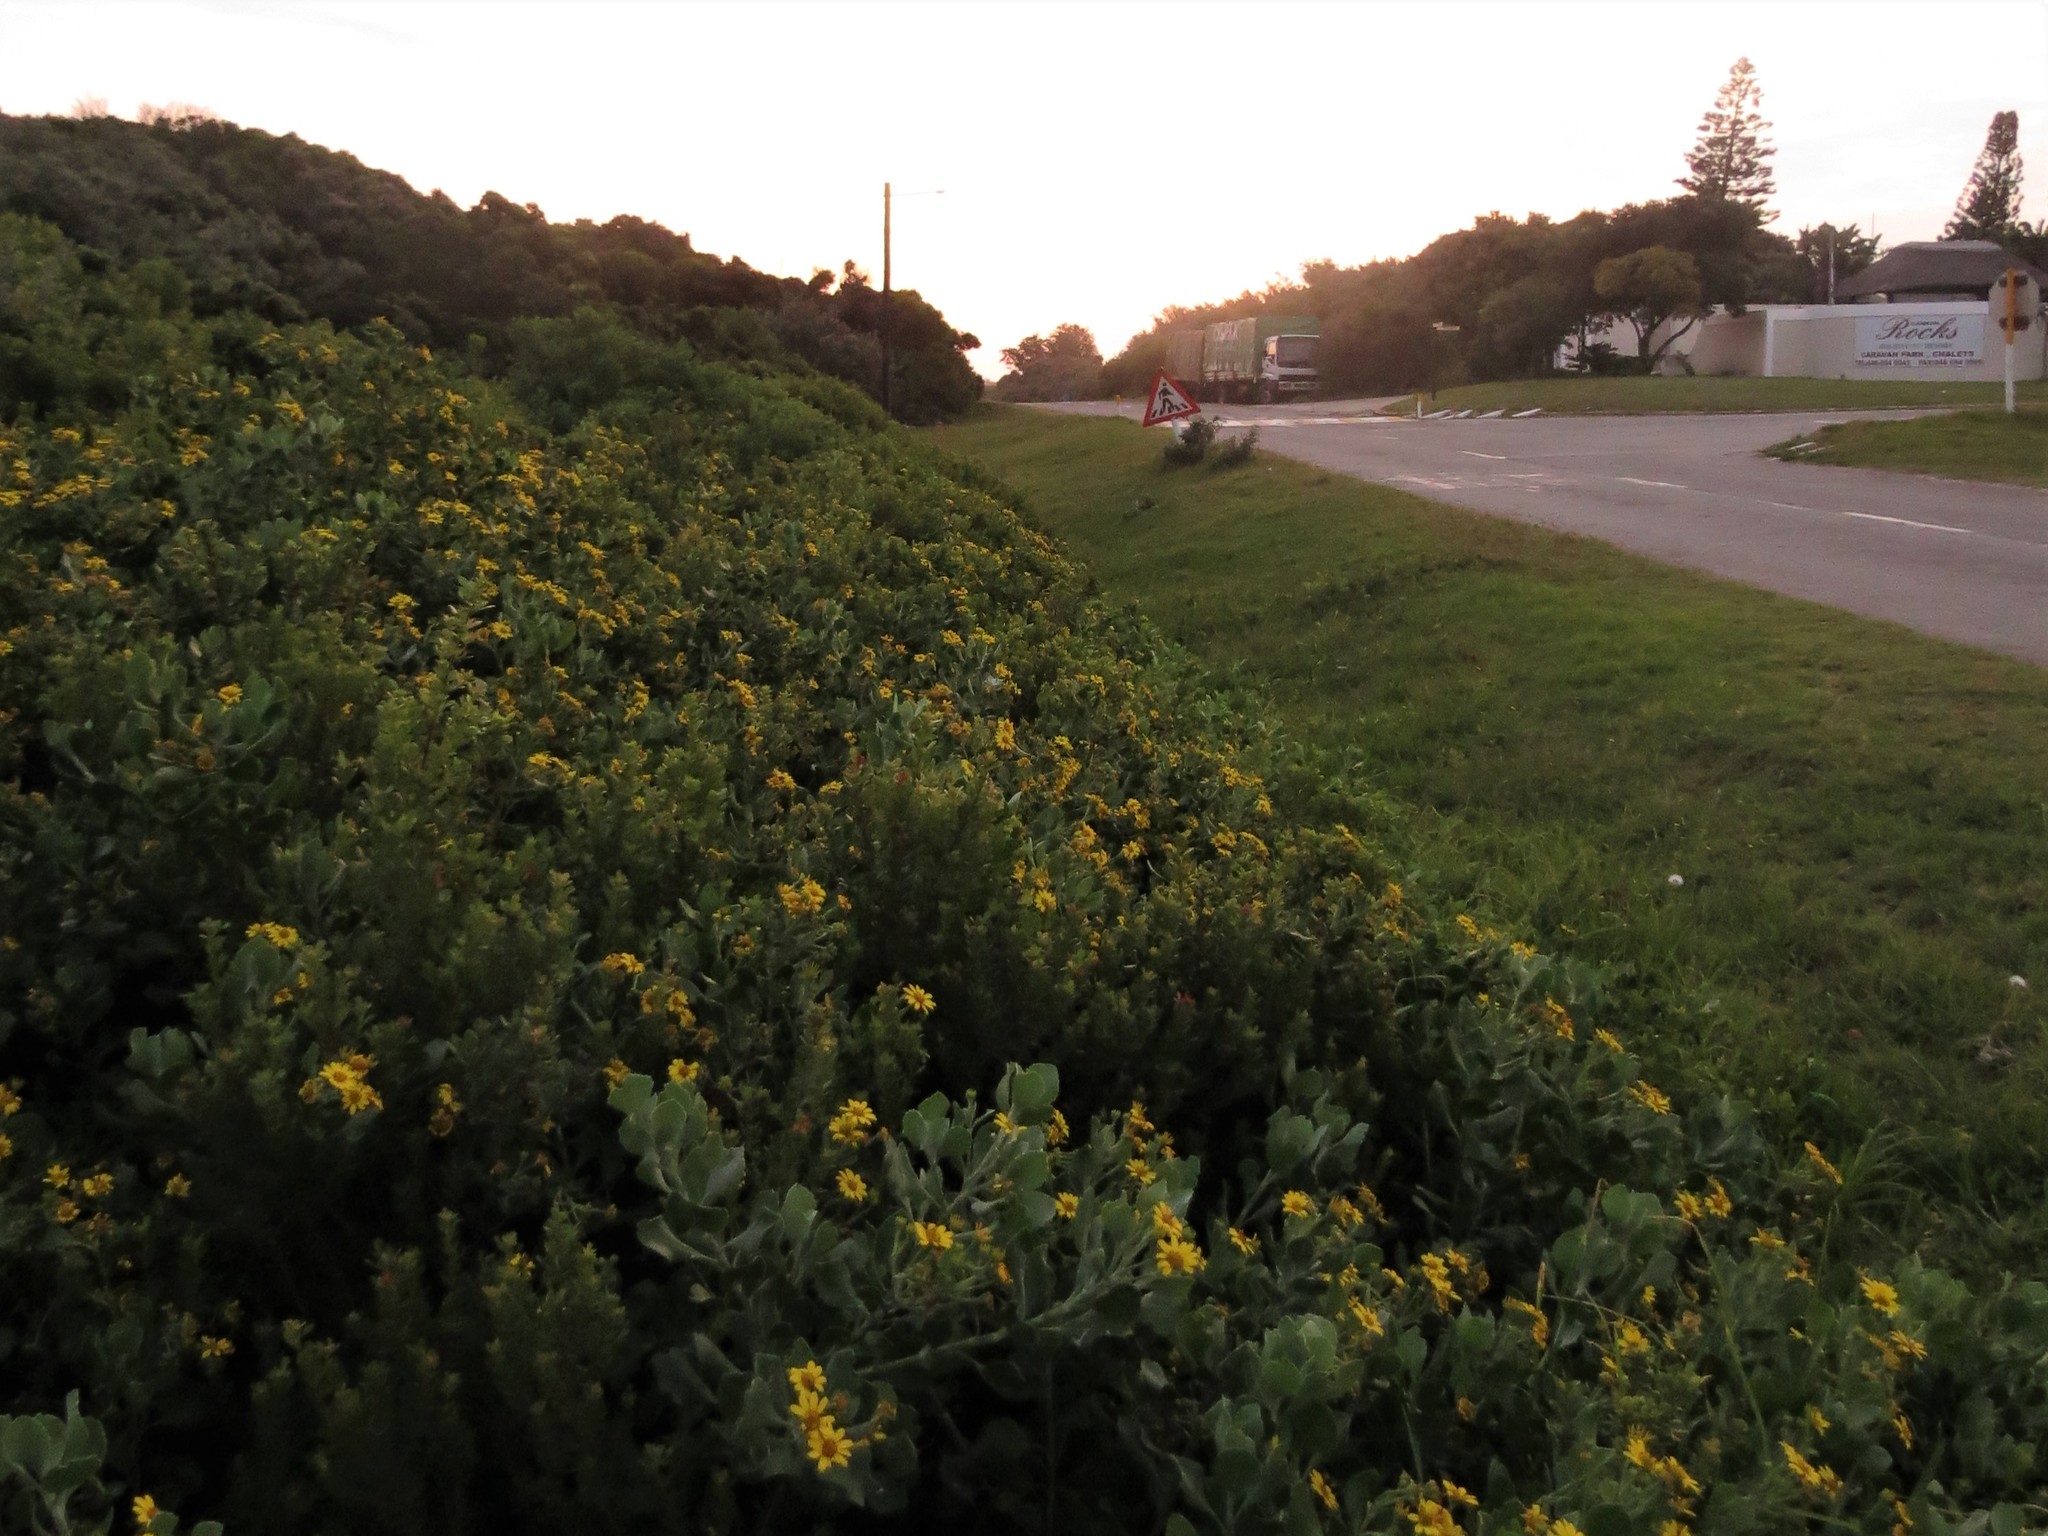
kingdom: Plantae
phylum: Tracheophyta
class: Magnoliopsida
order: Asterales
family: Asteraceae
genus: Osteospermum
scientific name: Osteospermum moniliferum
